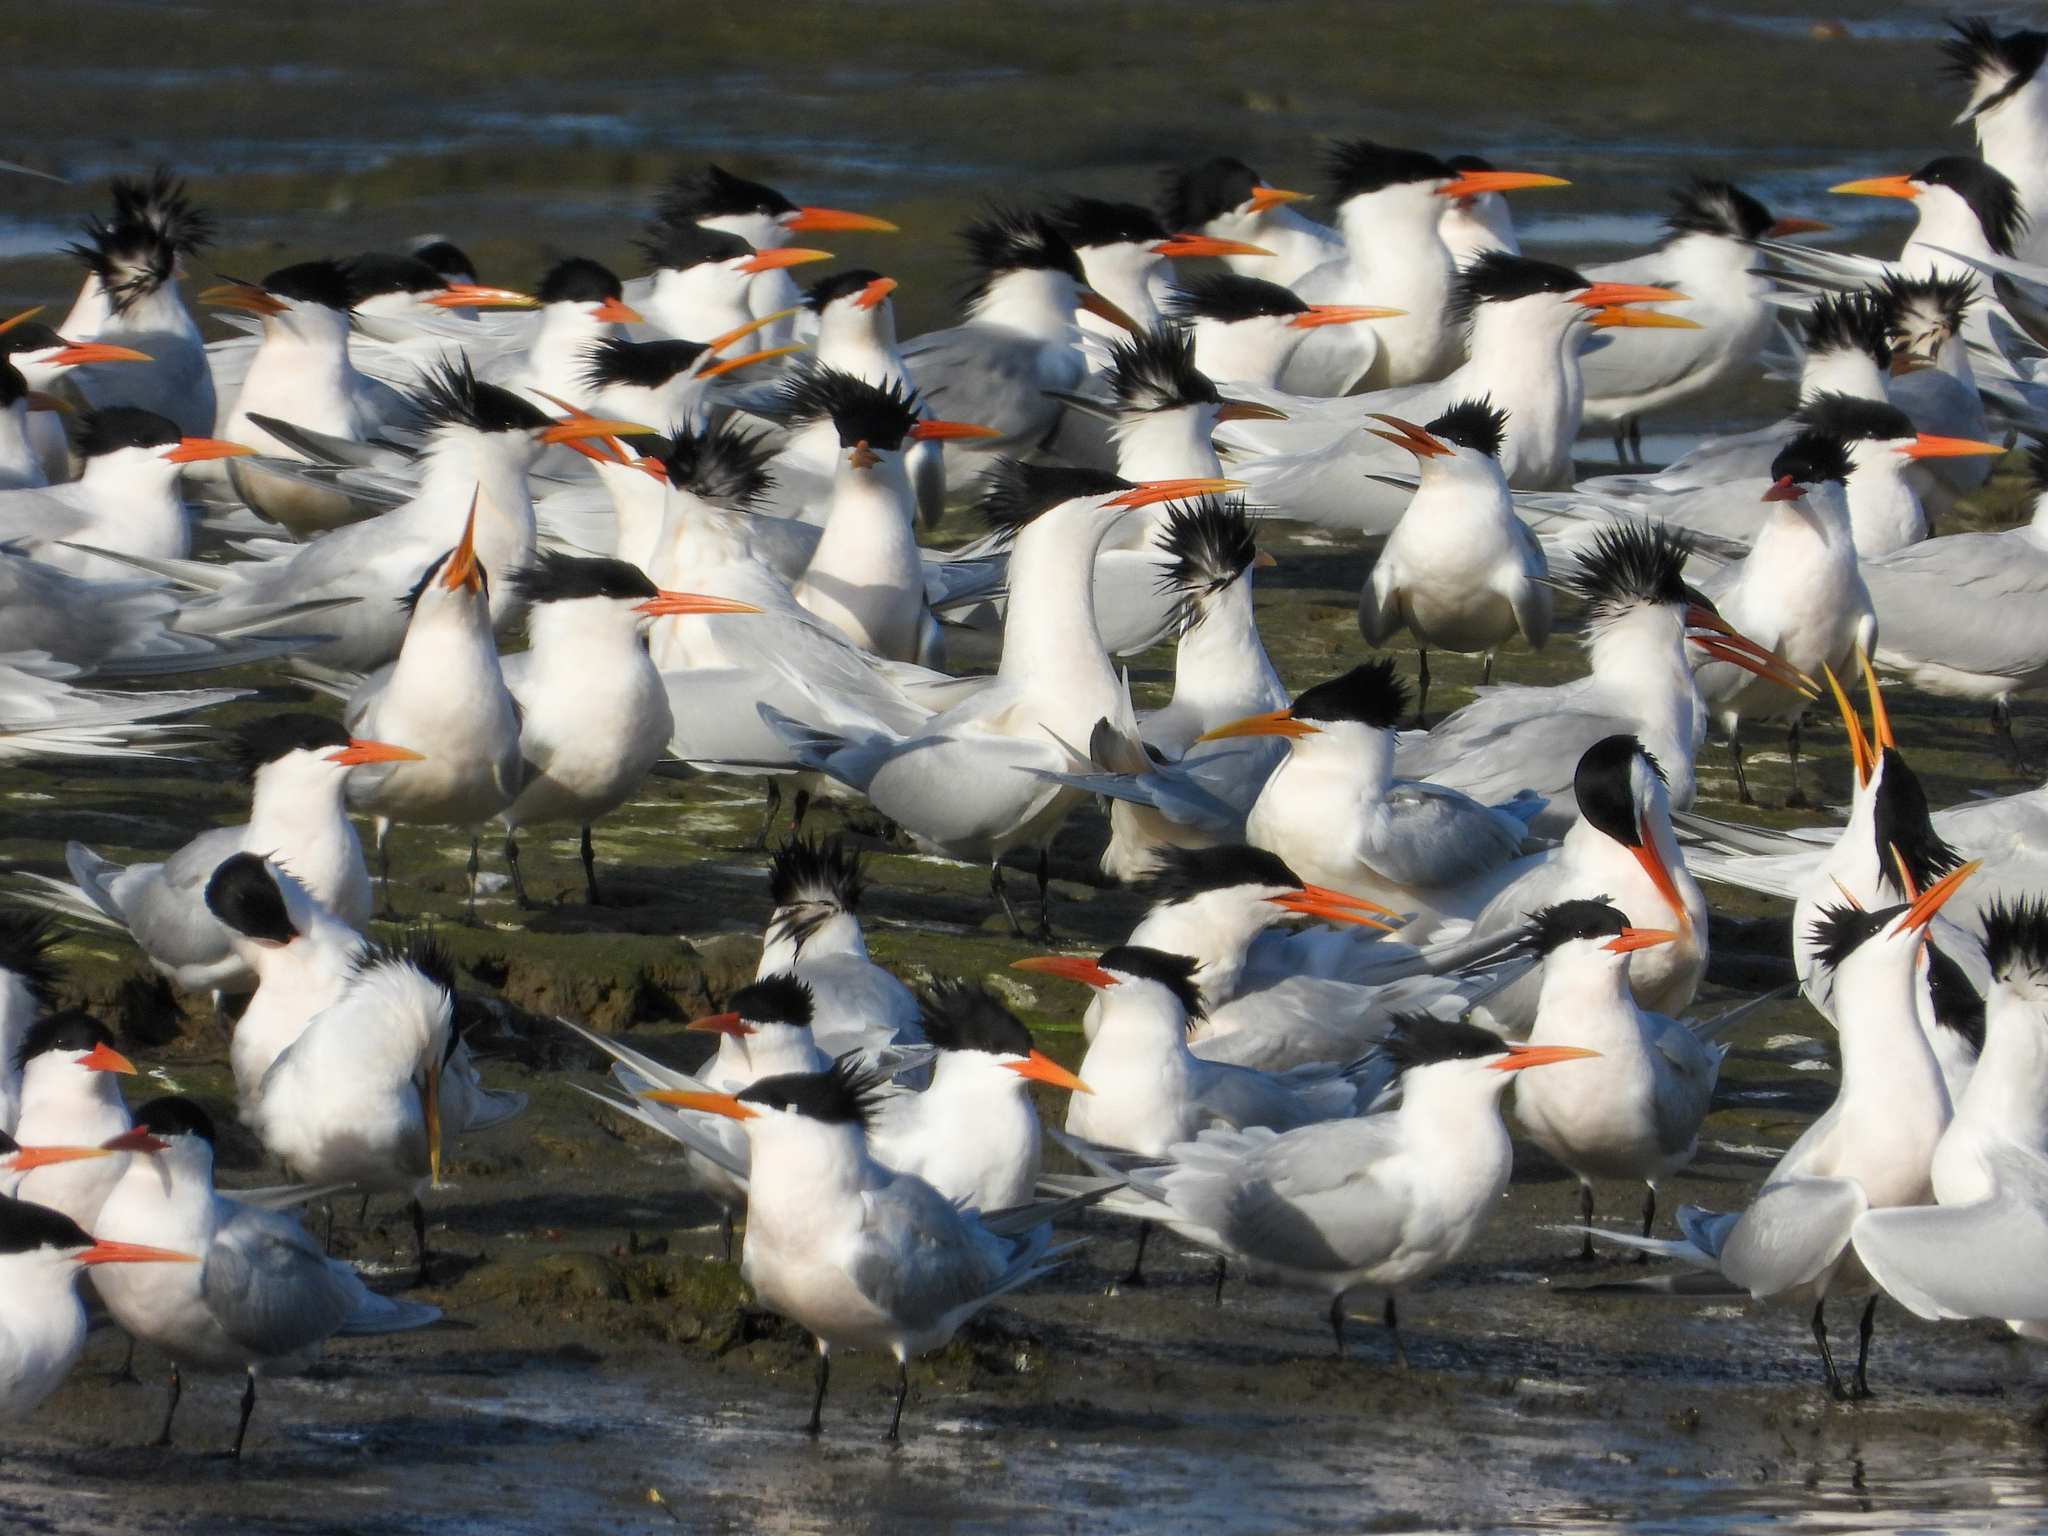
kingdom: Animalia
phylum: Chordata
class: Aves
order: Charadriiformes
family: Laridae
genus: Thalasseus
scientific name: Thalasseus elegans
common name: Elegant tern
